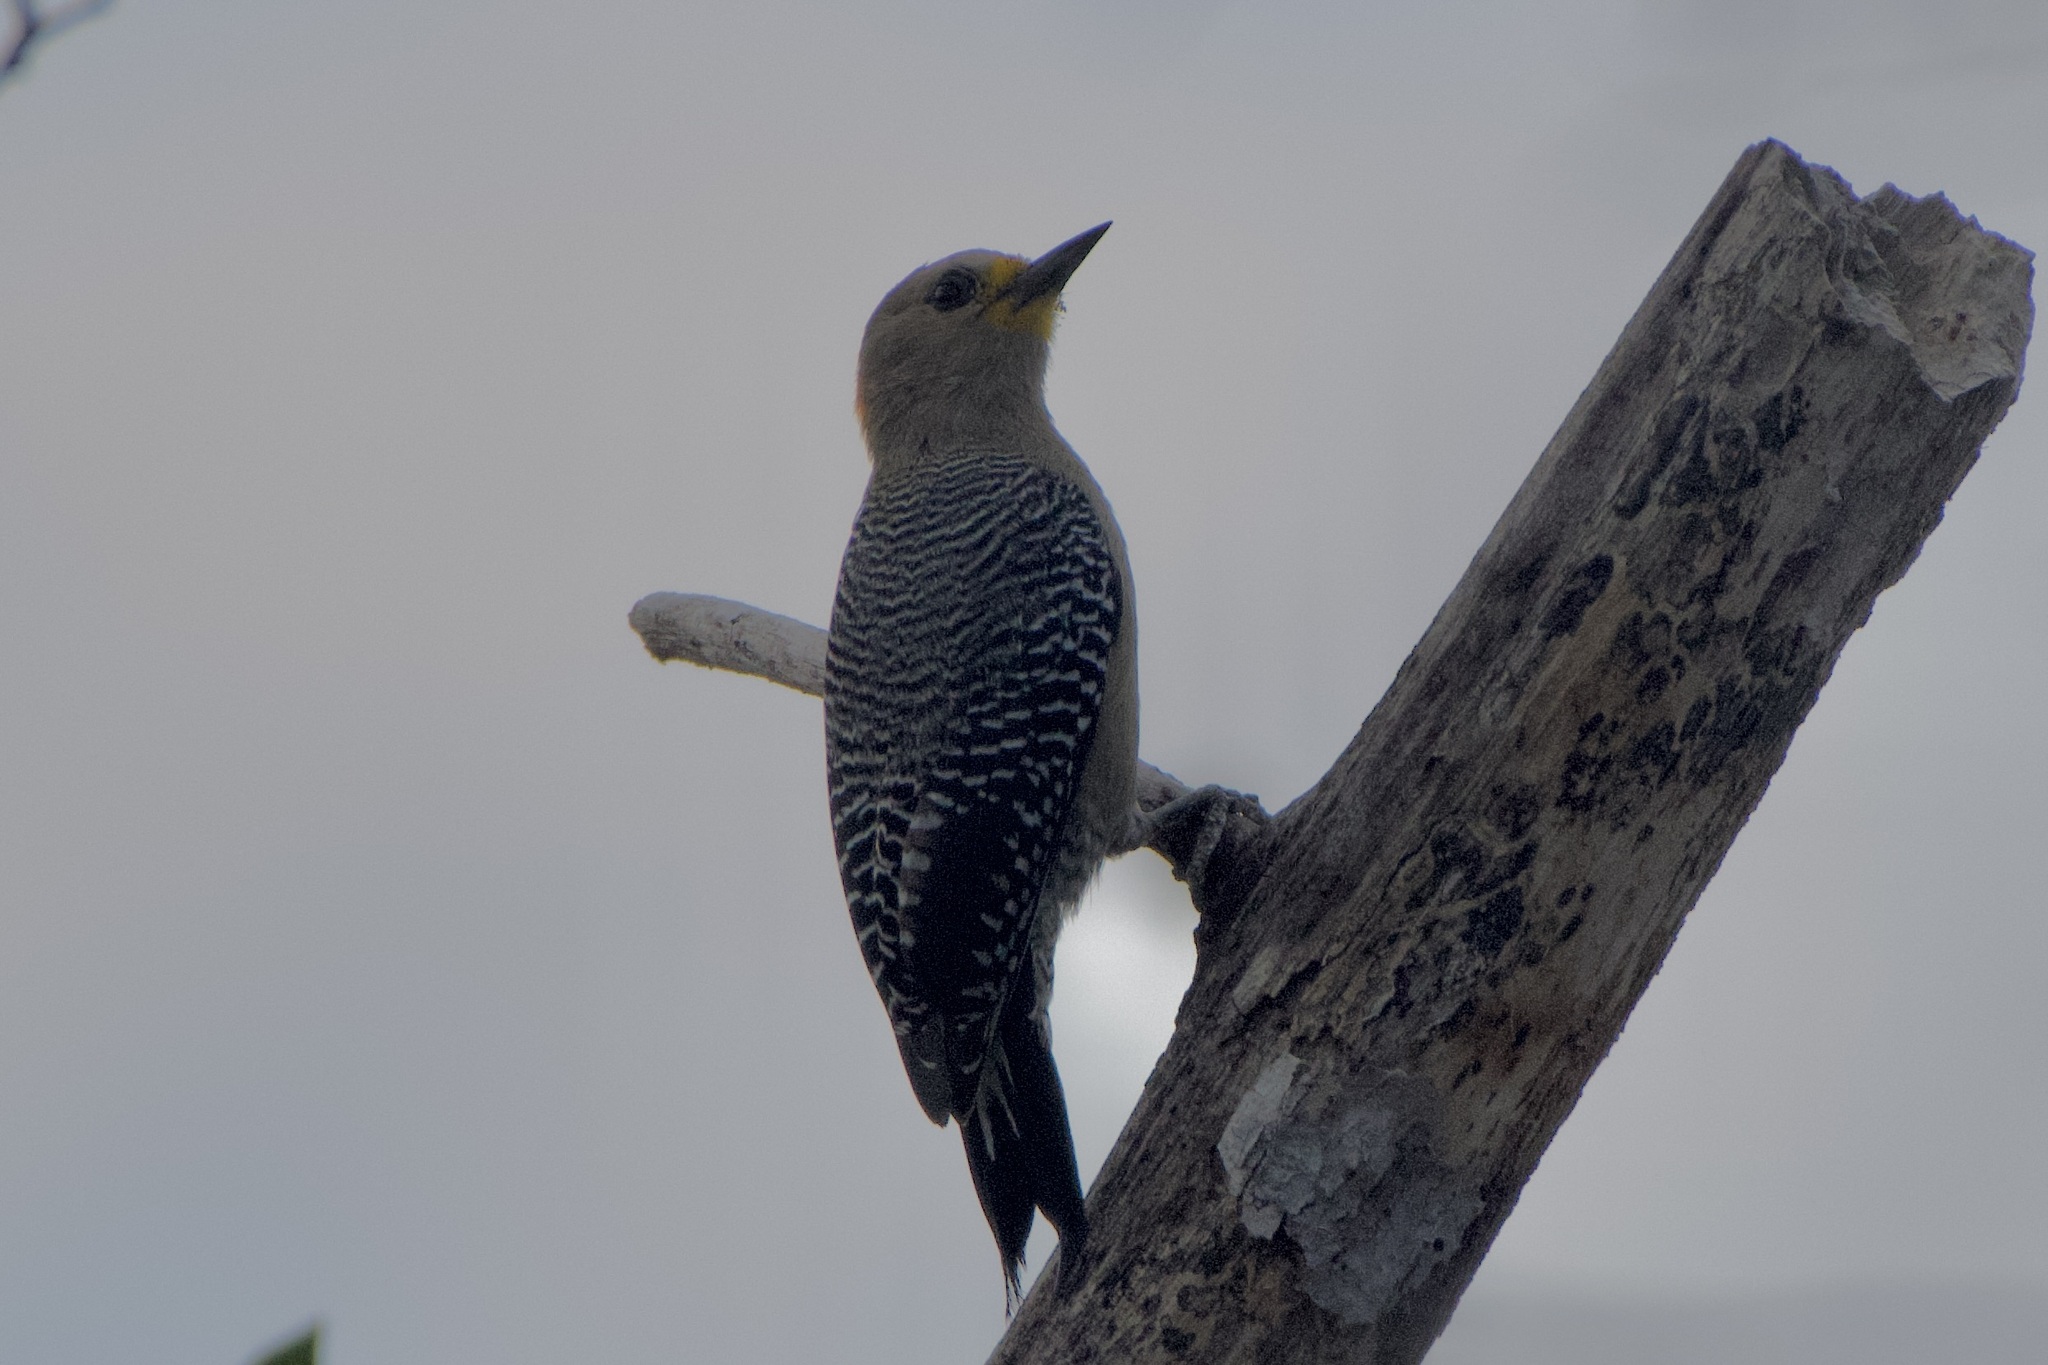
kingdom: Animalia
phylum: Chordata
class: Aves
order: Piciformes
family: Picidae
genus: Melanerpes
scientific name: Melanerpes pygmaeus
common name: Yucatan woodpecker
